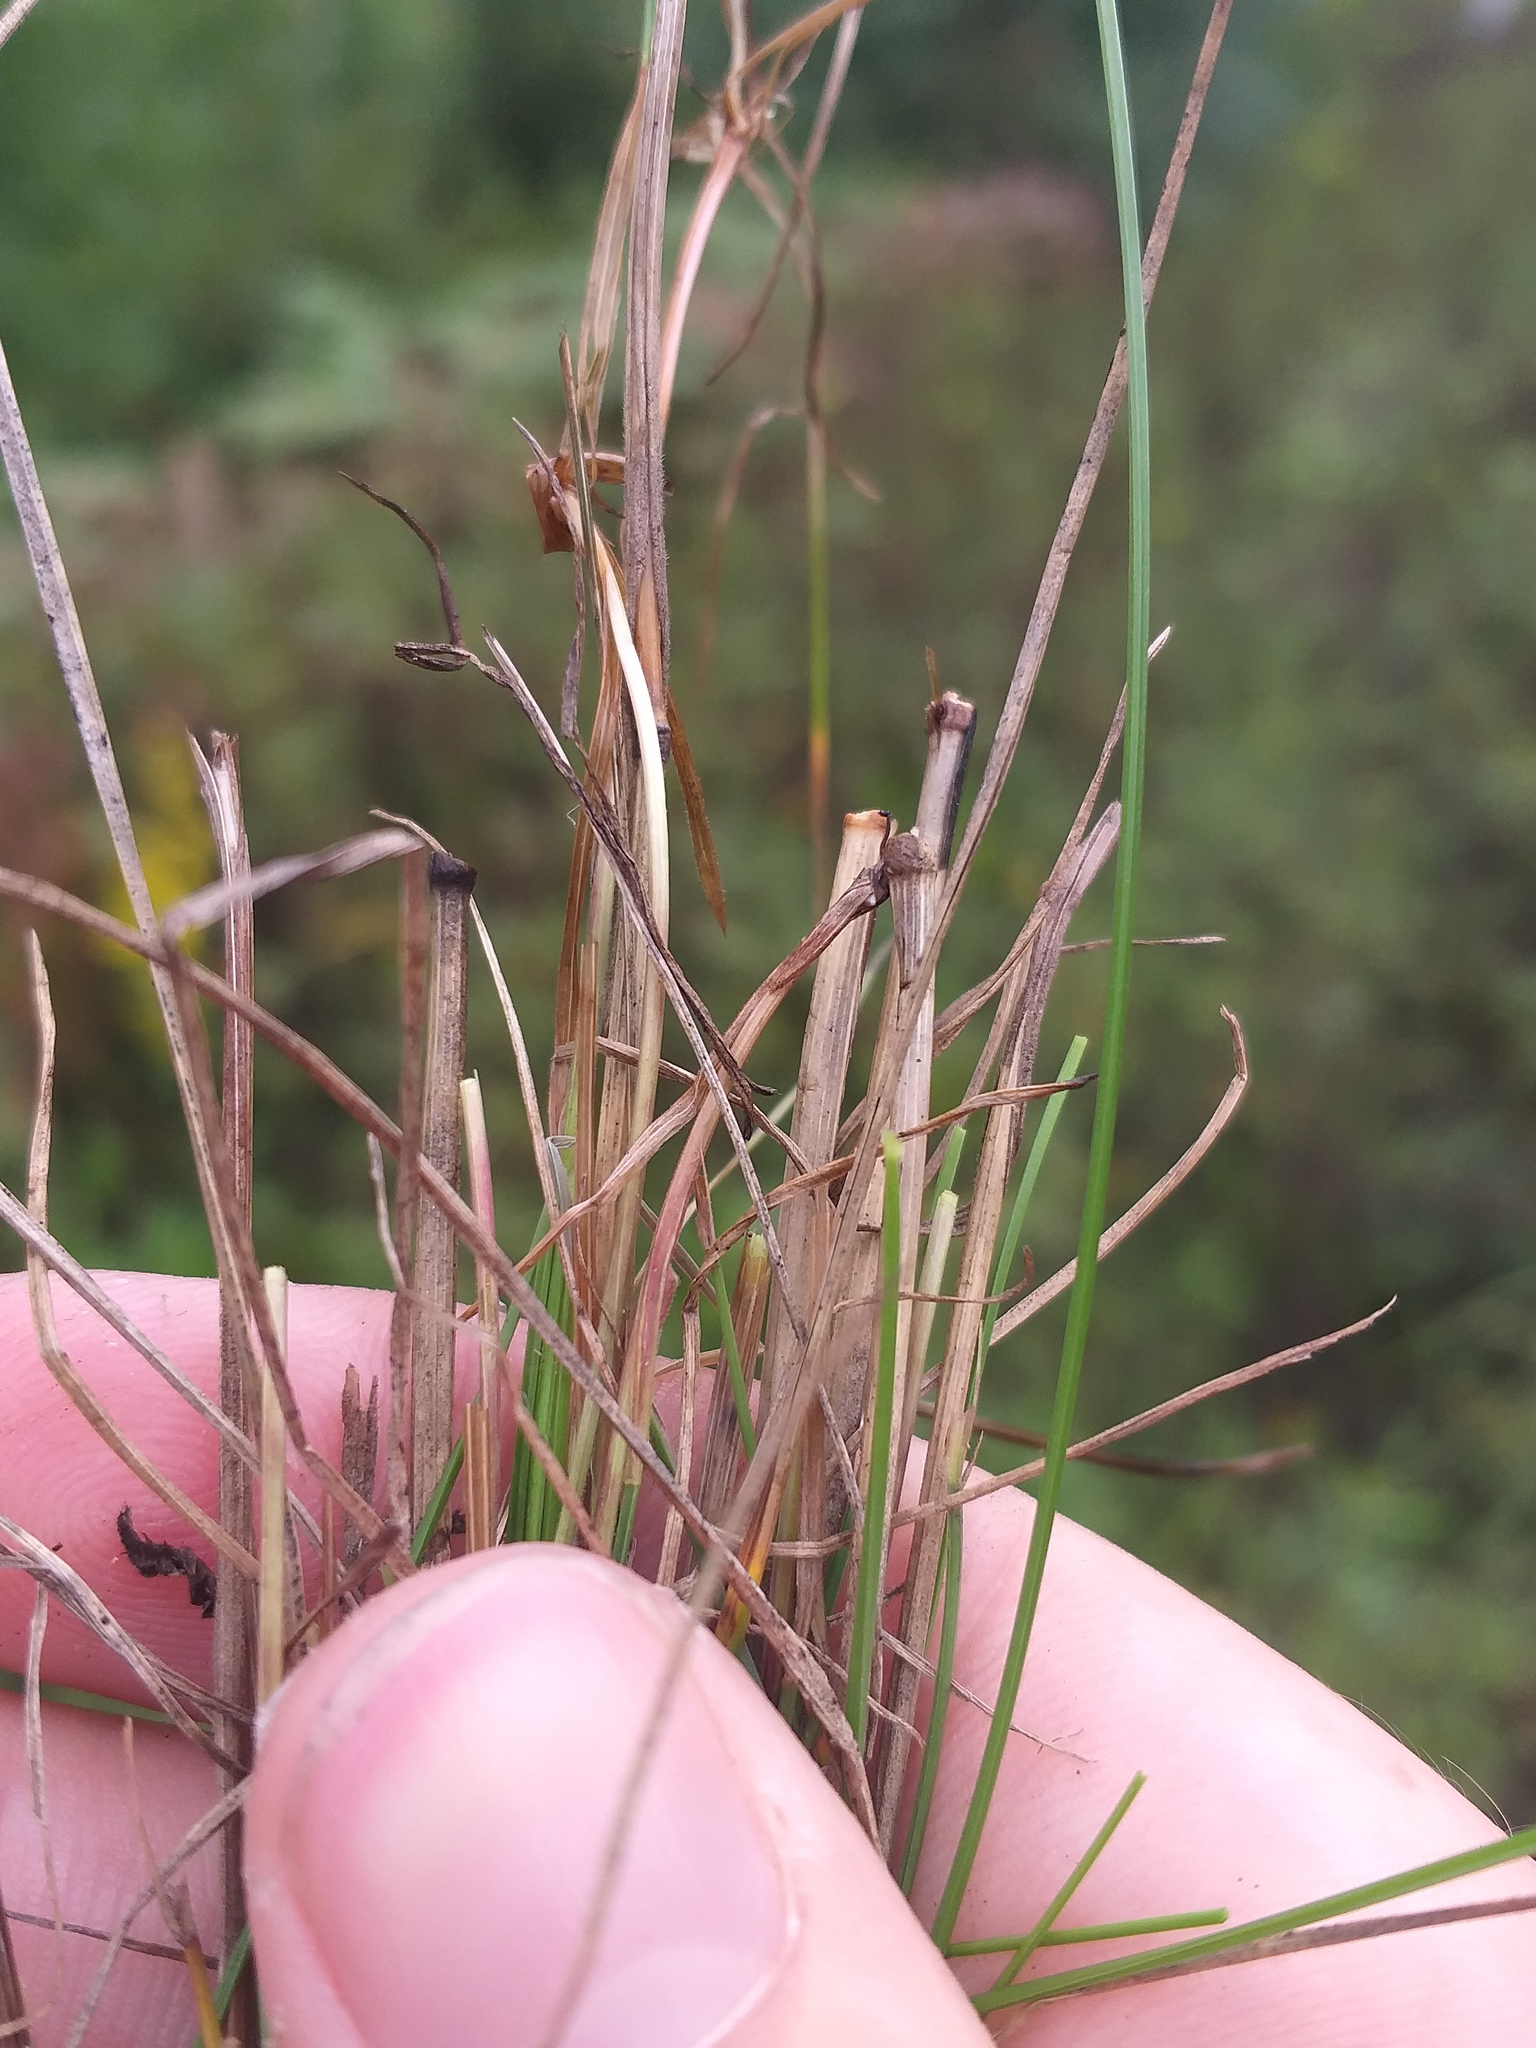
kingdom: Plantae
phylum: Tracheophyta
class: Liliopsida
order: Poales
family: Poaceae
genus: Festuca
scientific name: Festuca rubra
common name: Red fescue
